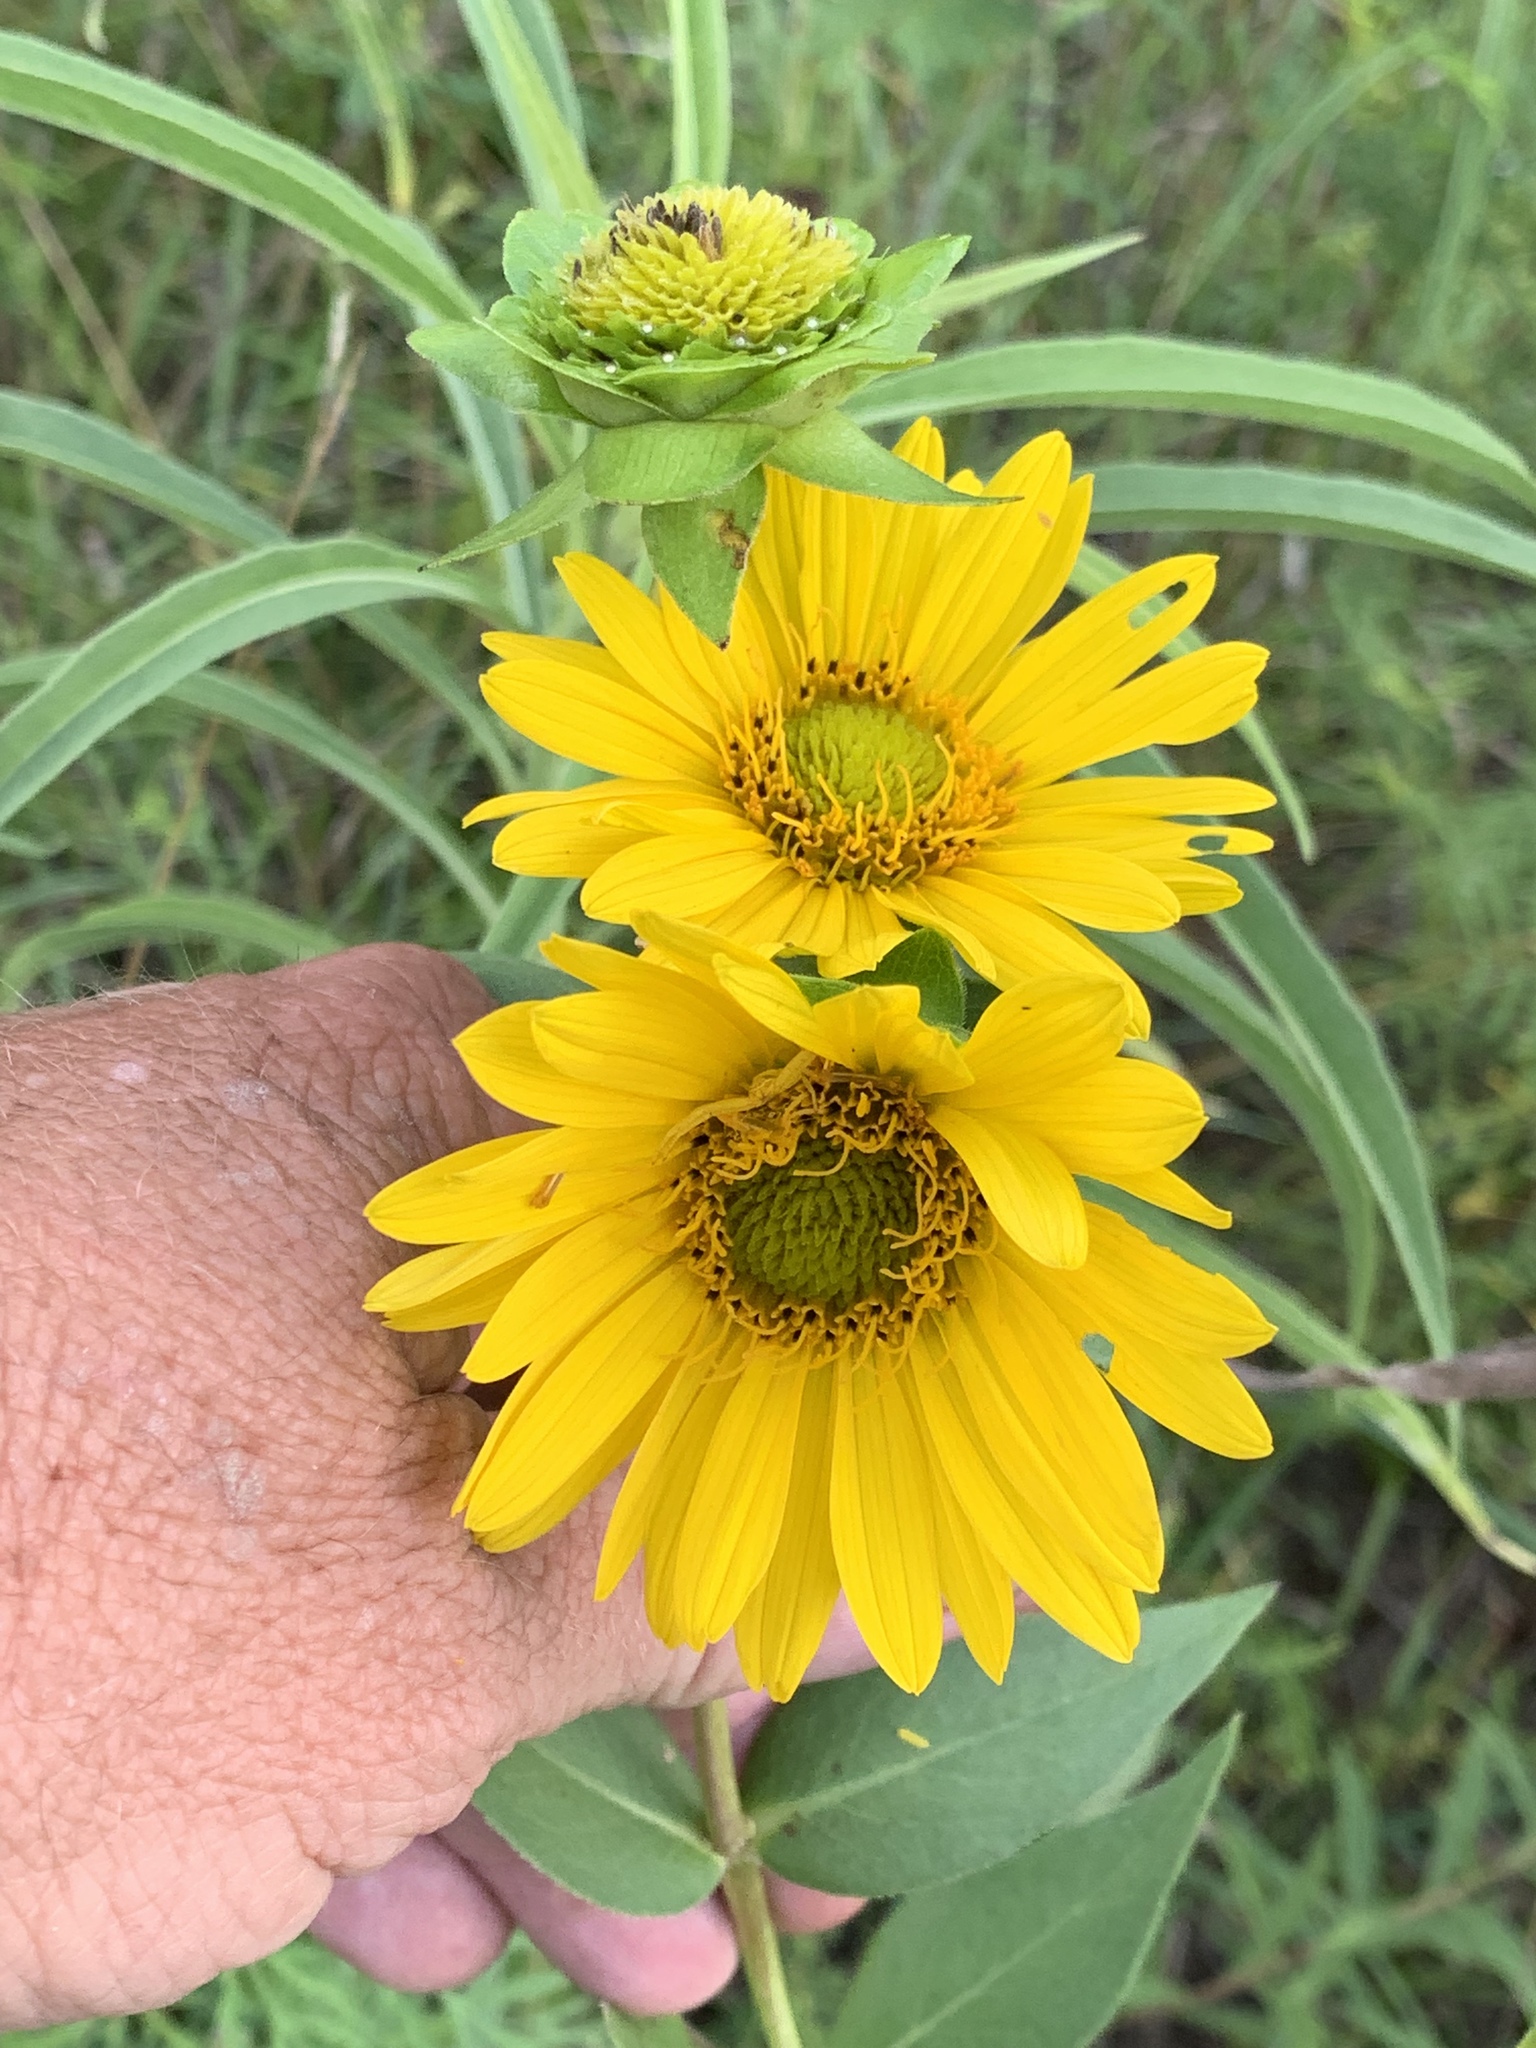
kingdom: Plantae
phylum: Tracheophyta
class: Magnoliopsida
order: Asterales
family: Asteraceae
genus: Silphium
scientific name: Silphium integrifolium
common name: Whole-leaf rosinweed
